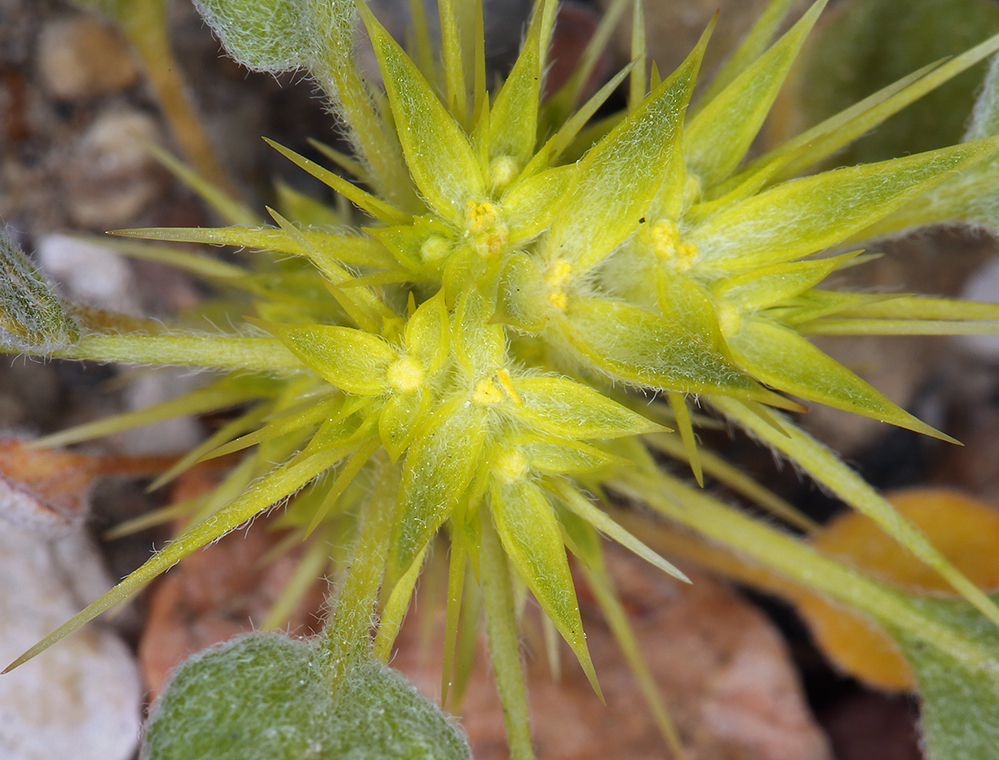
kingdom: Plantae
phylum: Tracheophyta
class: Magnoliopsida
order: Caryophyllales
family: Polygonaceae
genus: Chorizanthe
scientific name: Chorizanthe rigida
